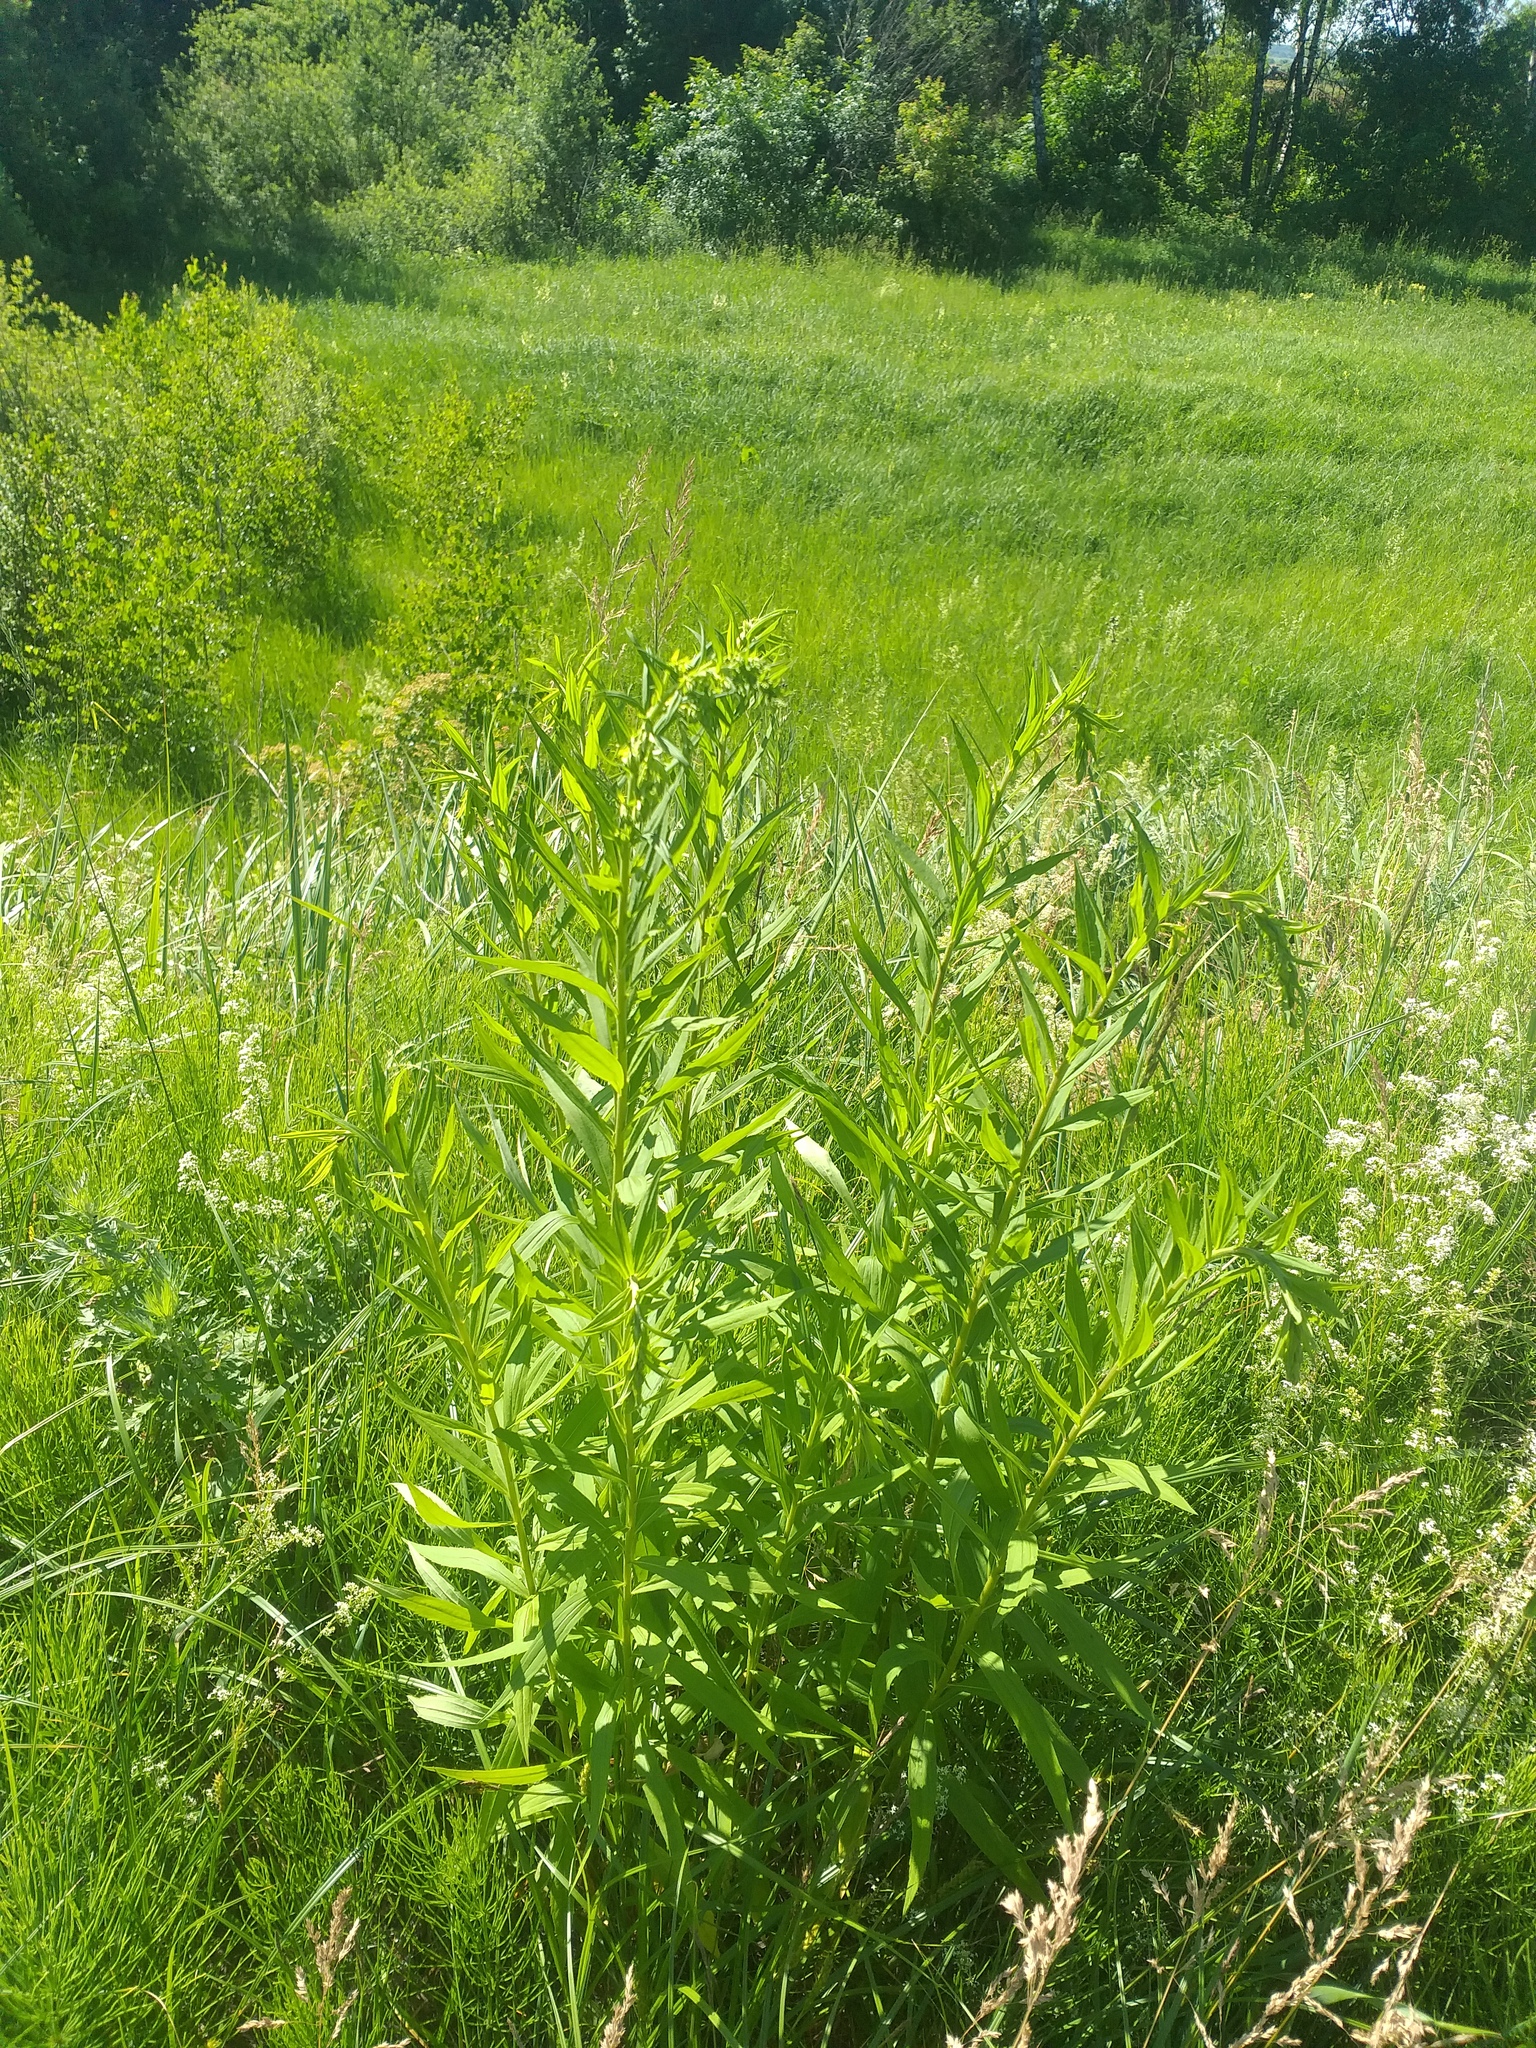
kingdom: Plantae
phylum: Tracheophyta
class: Magnoliopsida
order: Asterales
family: Asteraceae
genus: Solidago
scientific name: Solidago canadensis
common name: Canada goldenrod
